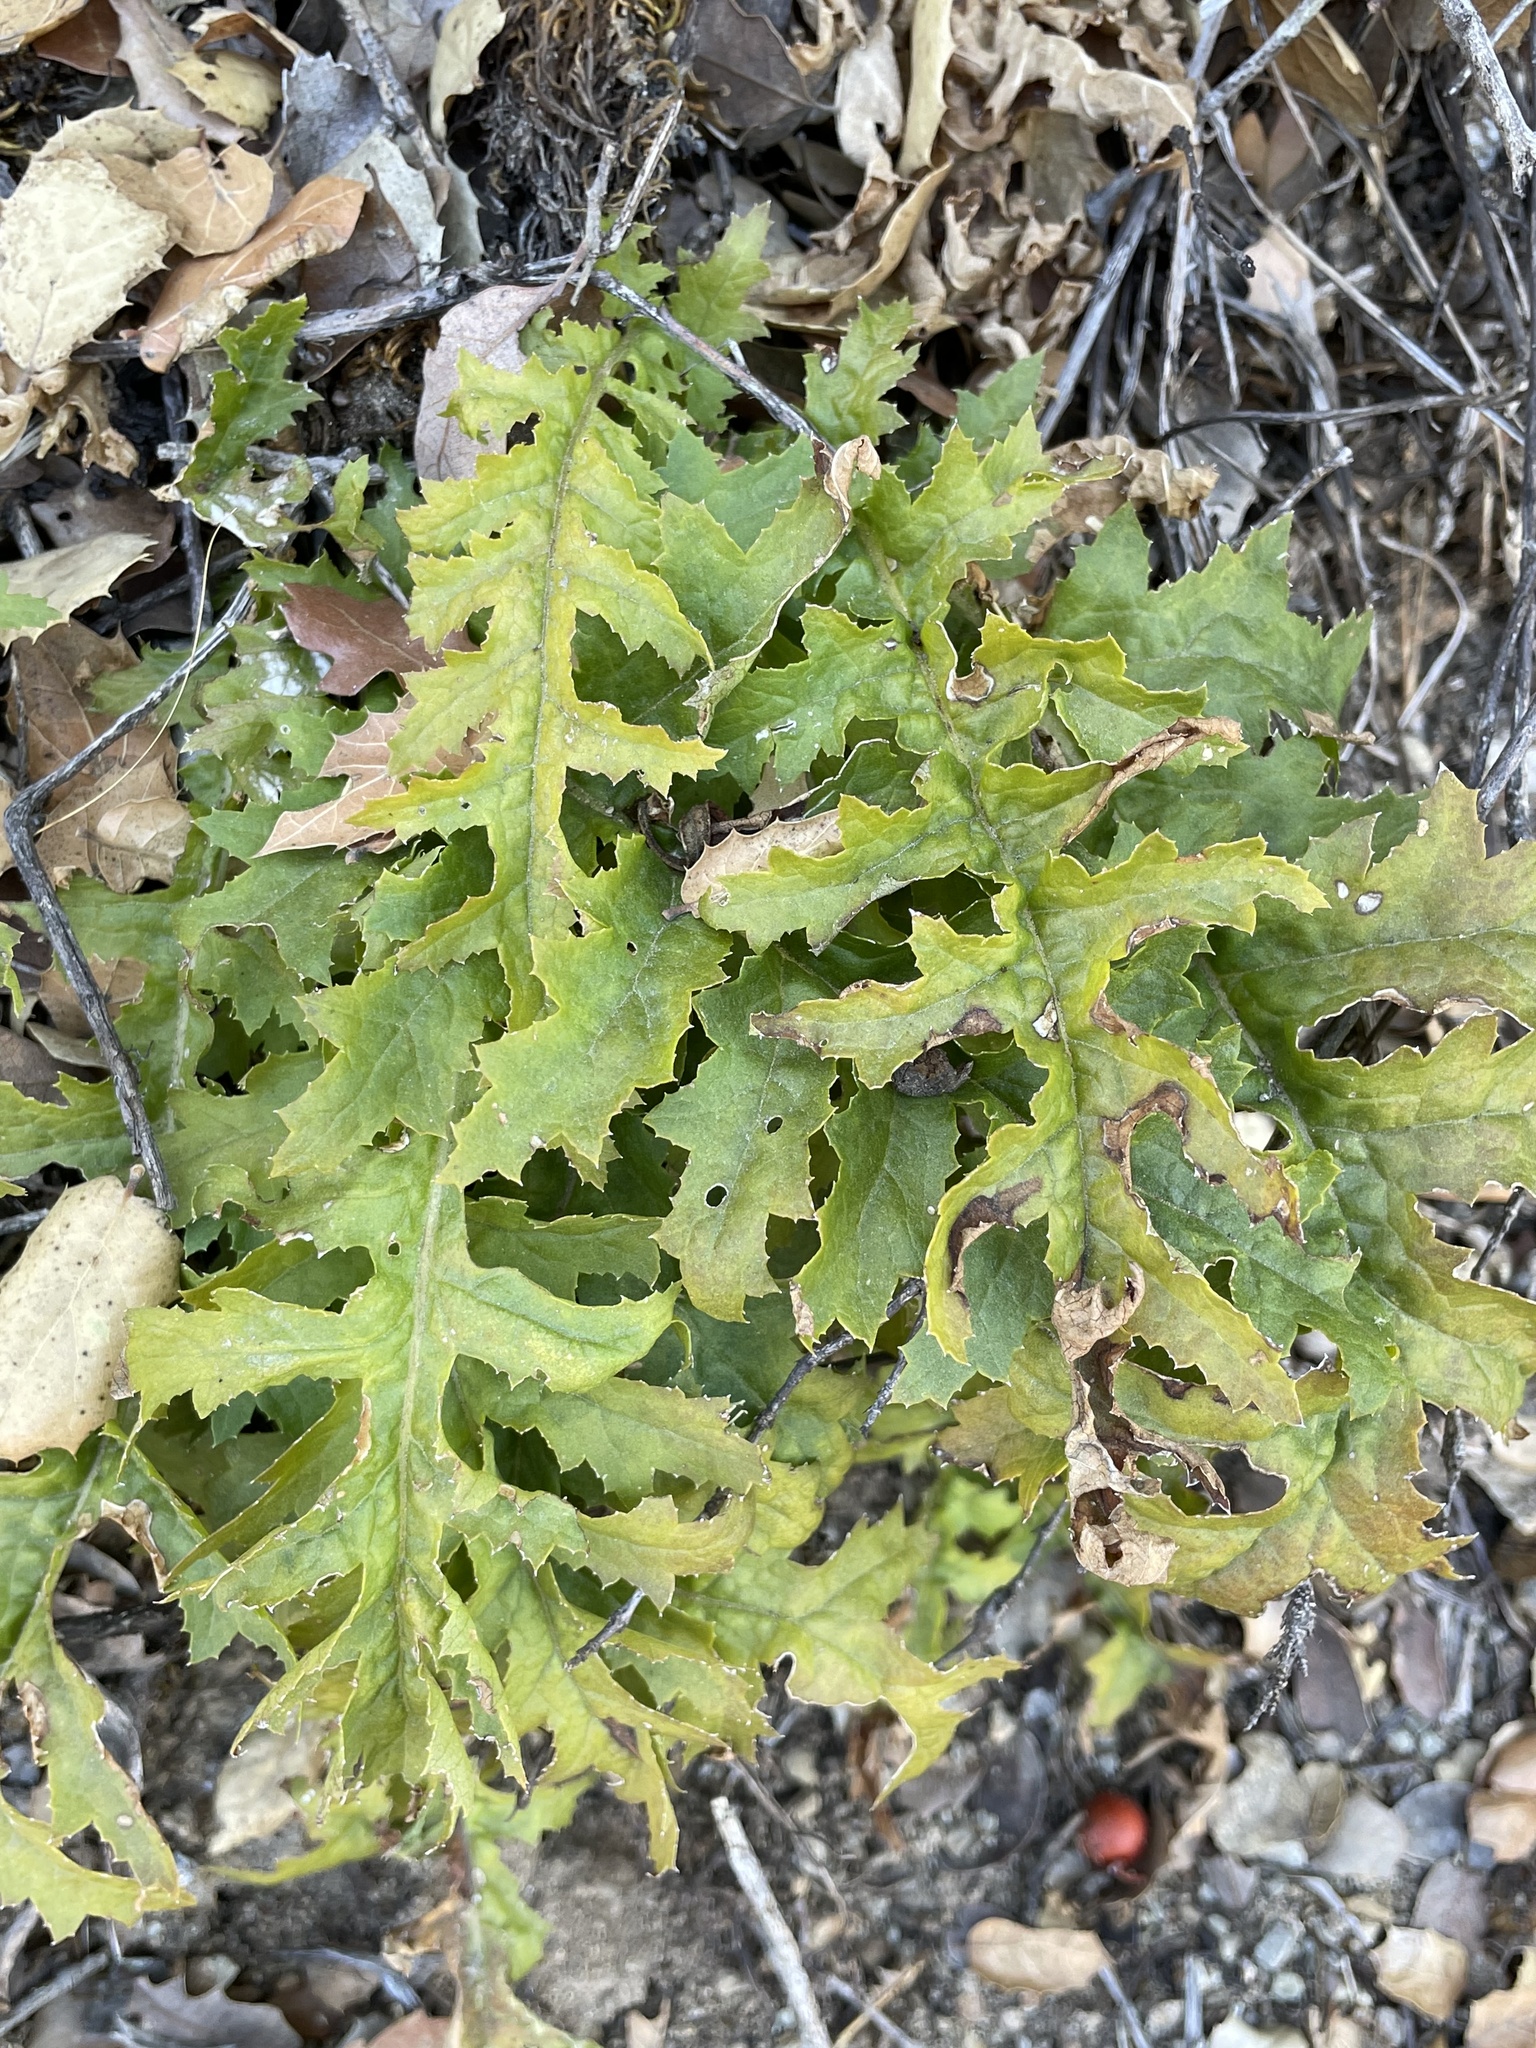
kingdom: Plantae
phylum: Tracheophyta
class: Magnoliopsida
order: Lamiales
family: Orobanchaceae
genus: Pedicularis
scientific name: Pedicularis densiflora
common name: Indian warrior
